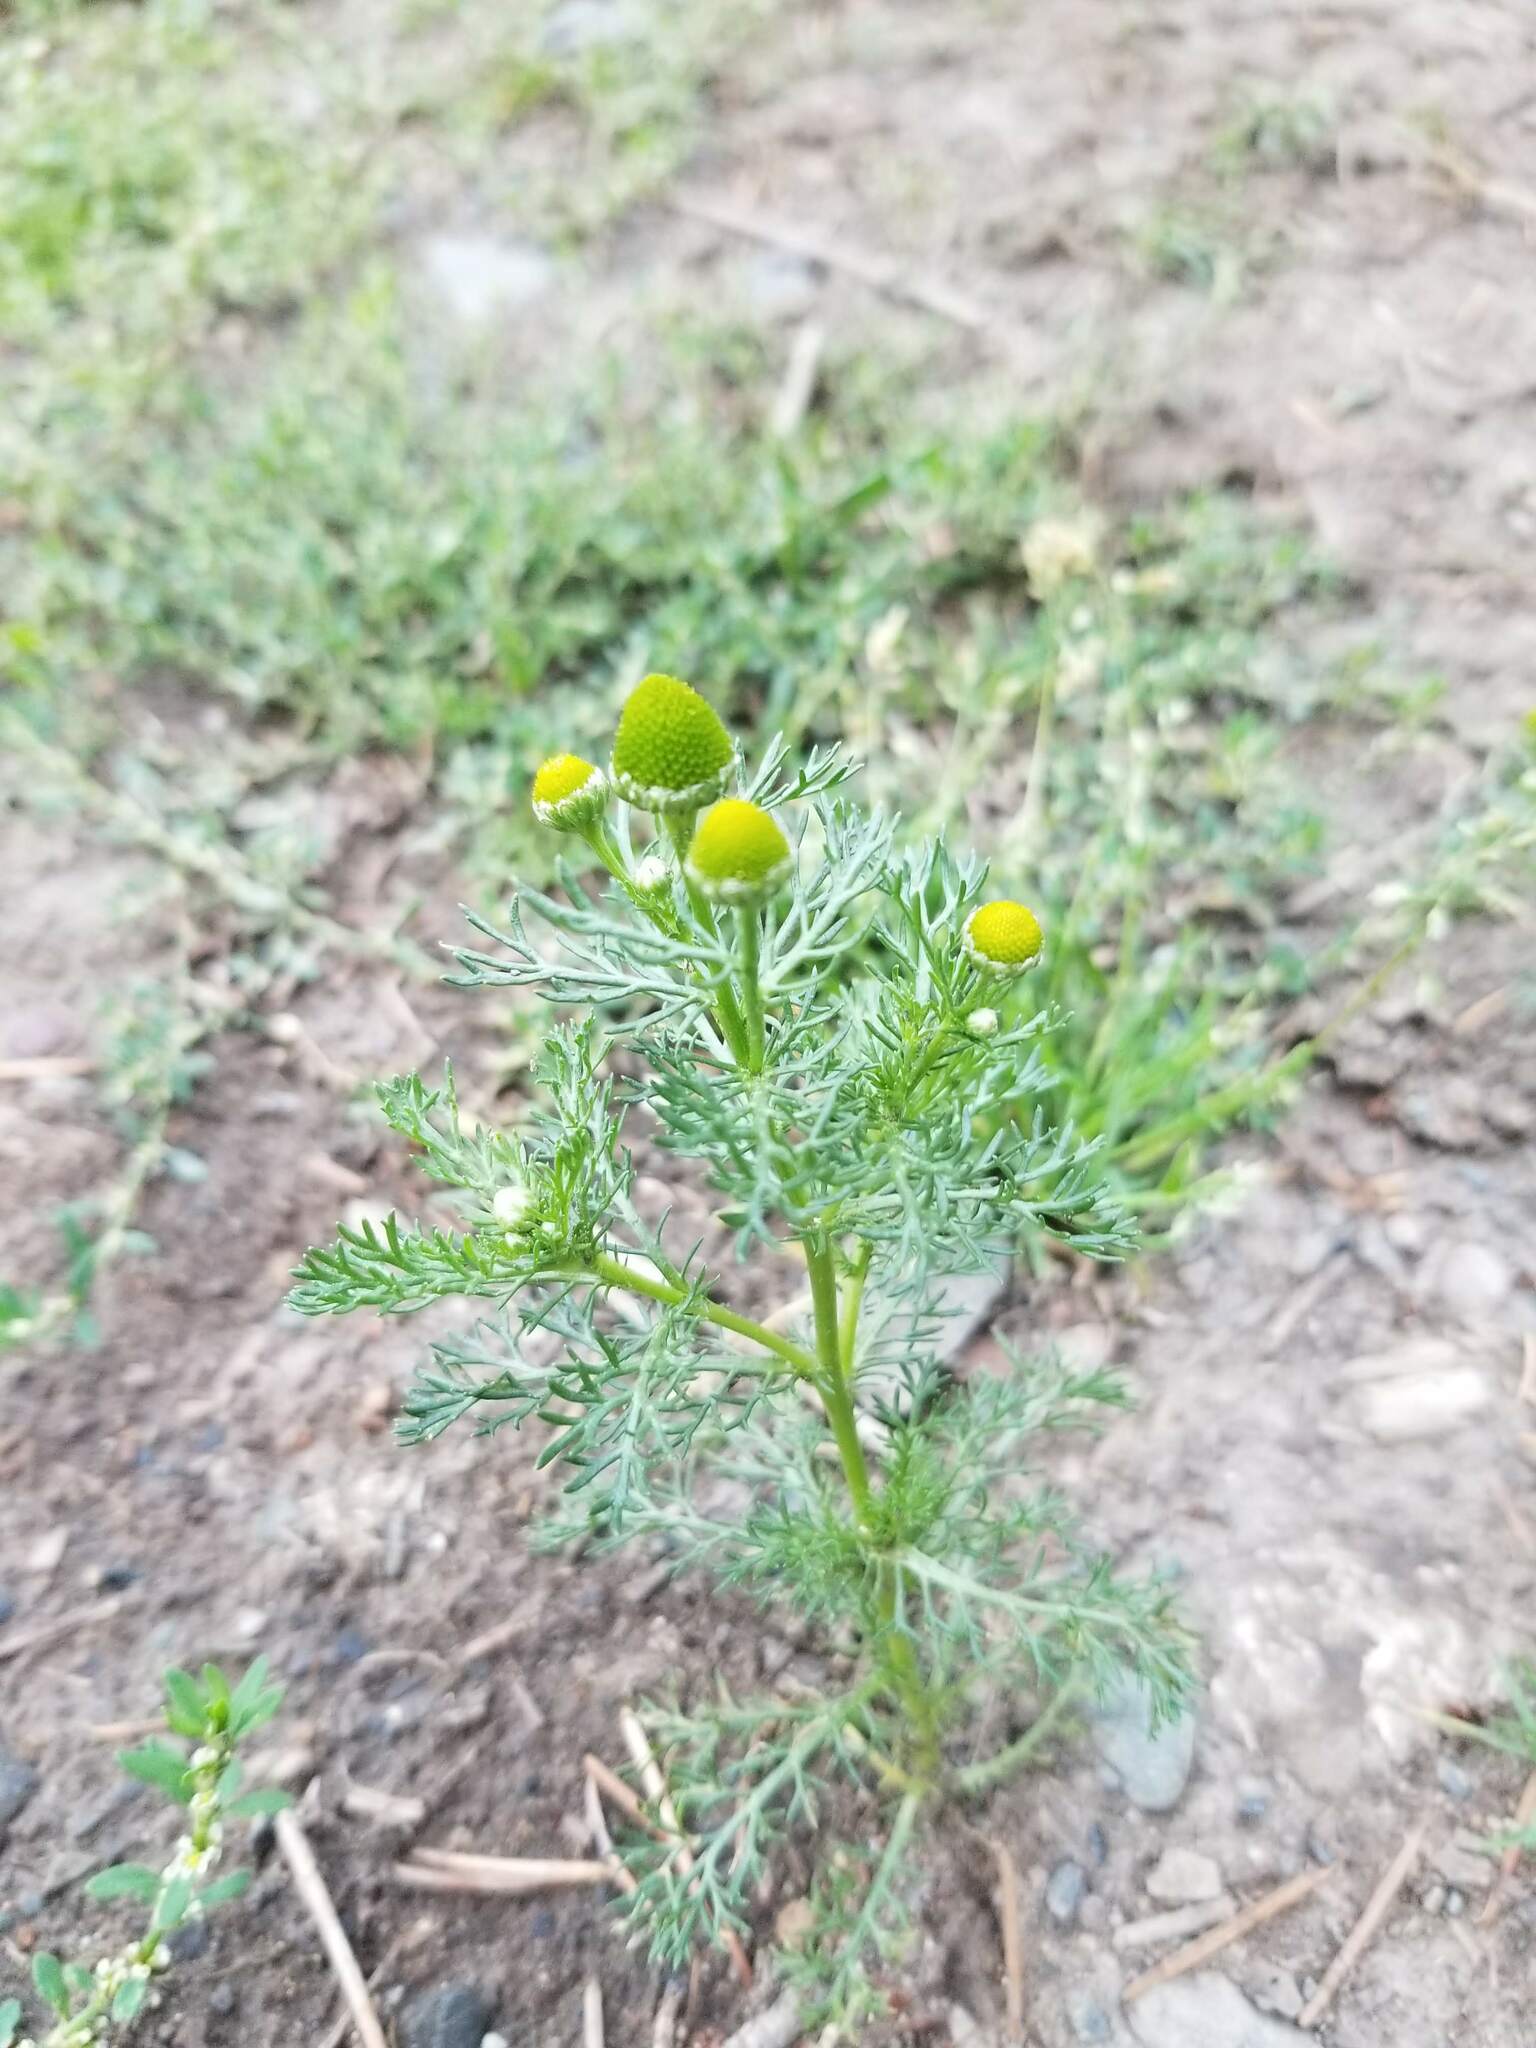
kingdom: Plantae
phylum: Tracheophyta
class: Magnoliopsida
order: Asterales
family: Asteraceae
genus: Matricaria
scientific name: Matricaria discoidea
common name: Disc mayweed
